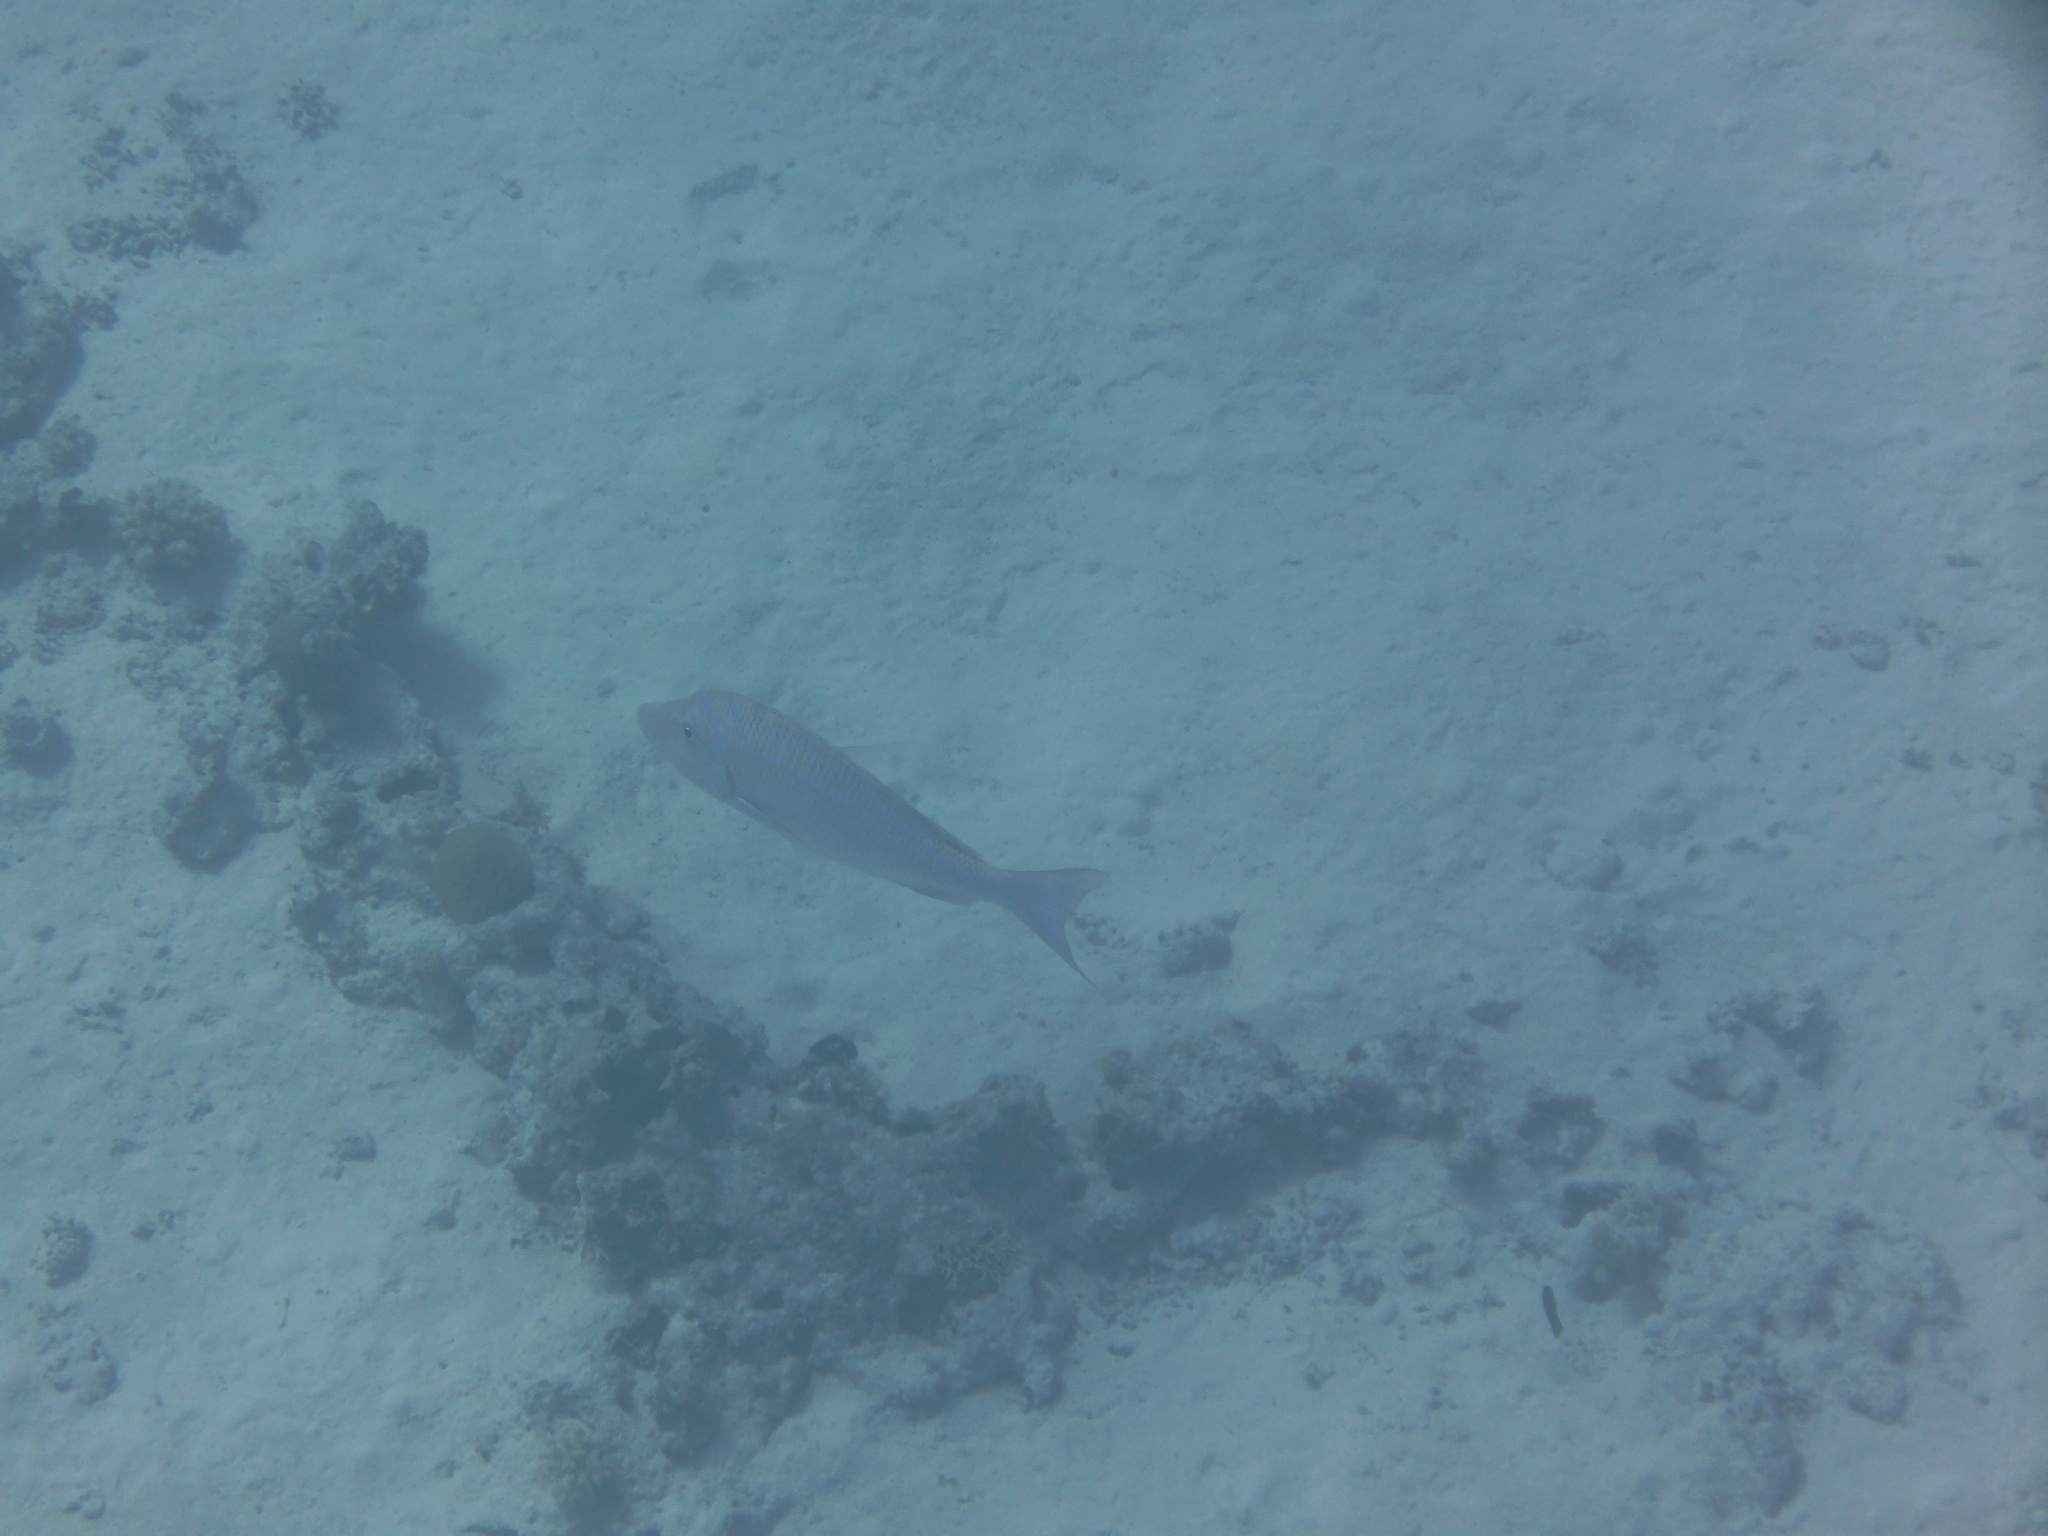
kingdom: Animalia
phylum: Chordata
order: Perciformes
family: Lethrinidae
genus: Lethrinus
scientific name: Lethrinus nebulosus
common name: Spangled emperor
